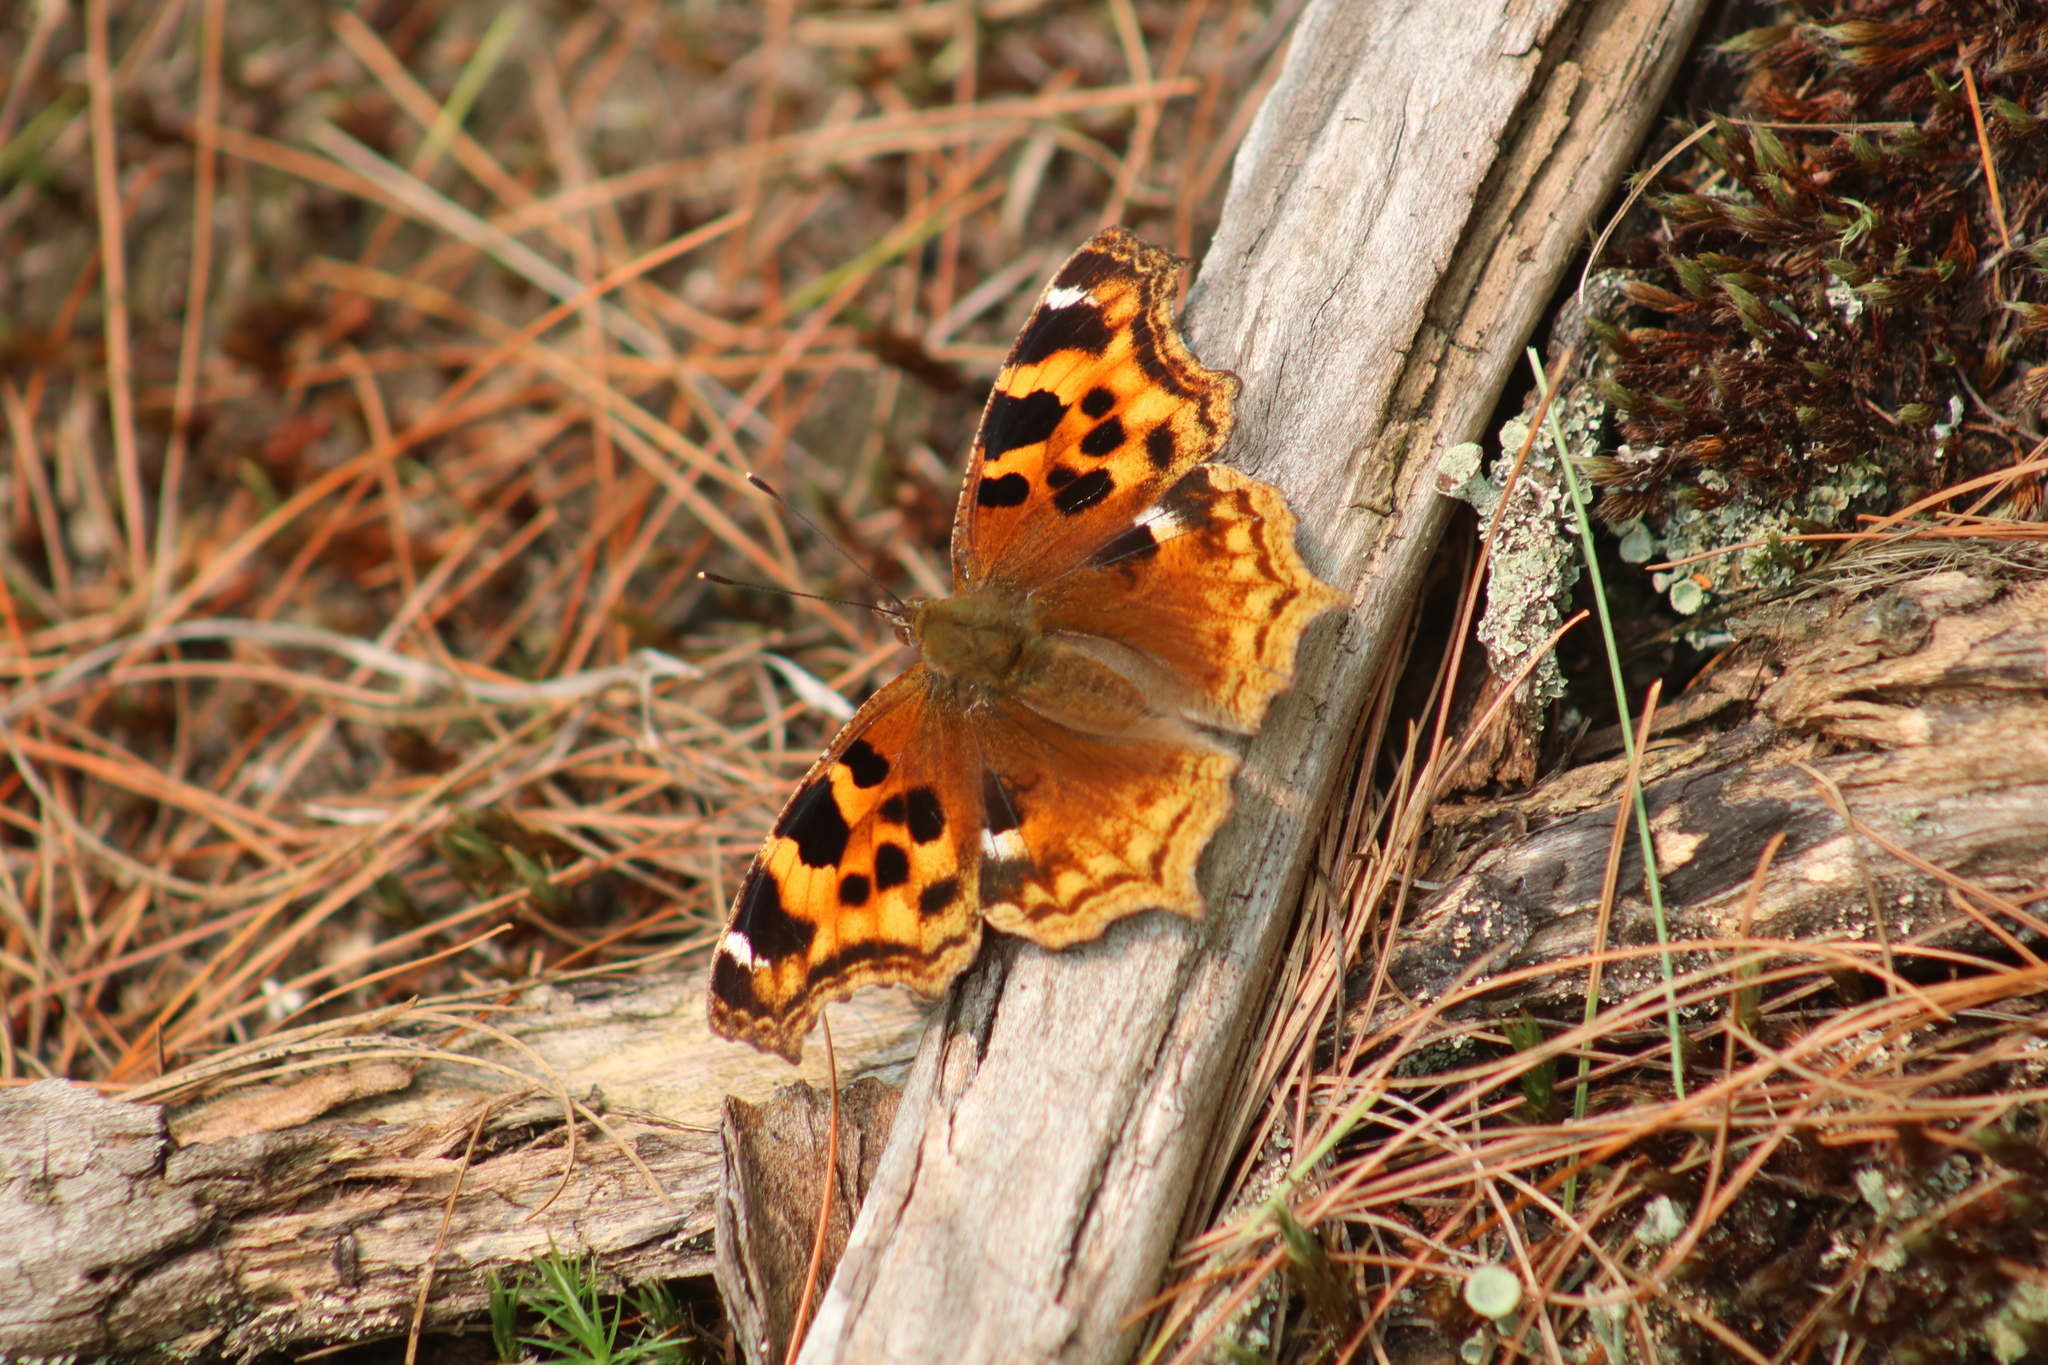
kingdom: Animalia
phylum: Arthropoda
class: Insecta
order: Lepidoptera
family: Nymphalidae
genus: Polygonia
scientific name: Polygonia vaualbum
